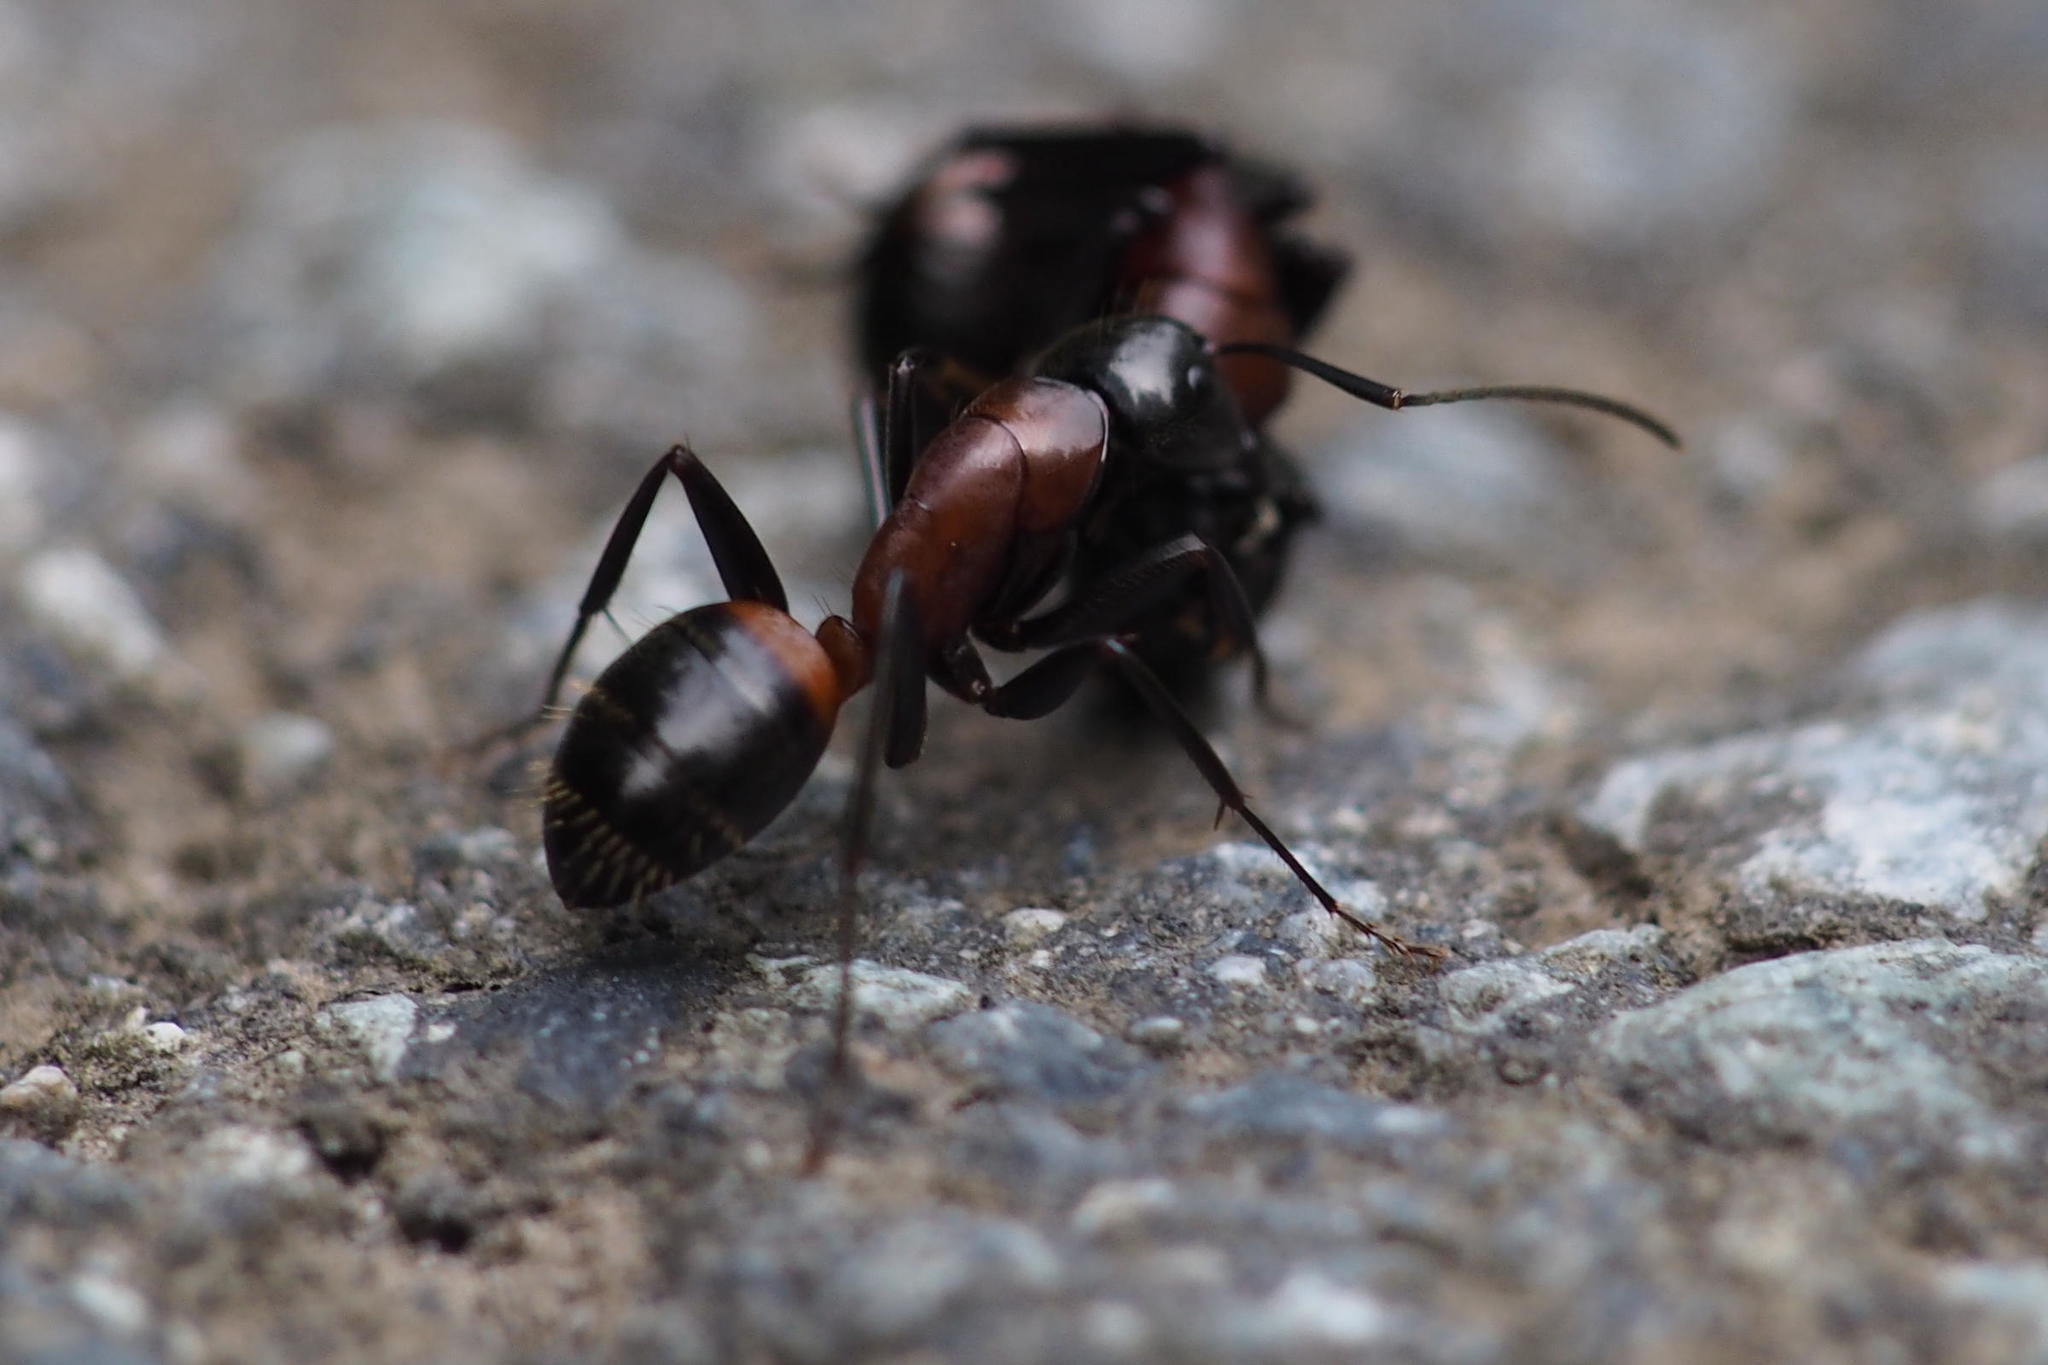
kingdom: Animalia
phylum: Arthropoda
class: Insecta
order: Hymenoptera
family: Formicidae
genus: Camponotus
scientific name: Camponotus obscuripes
